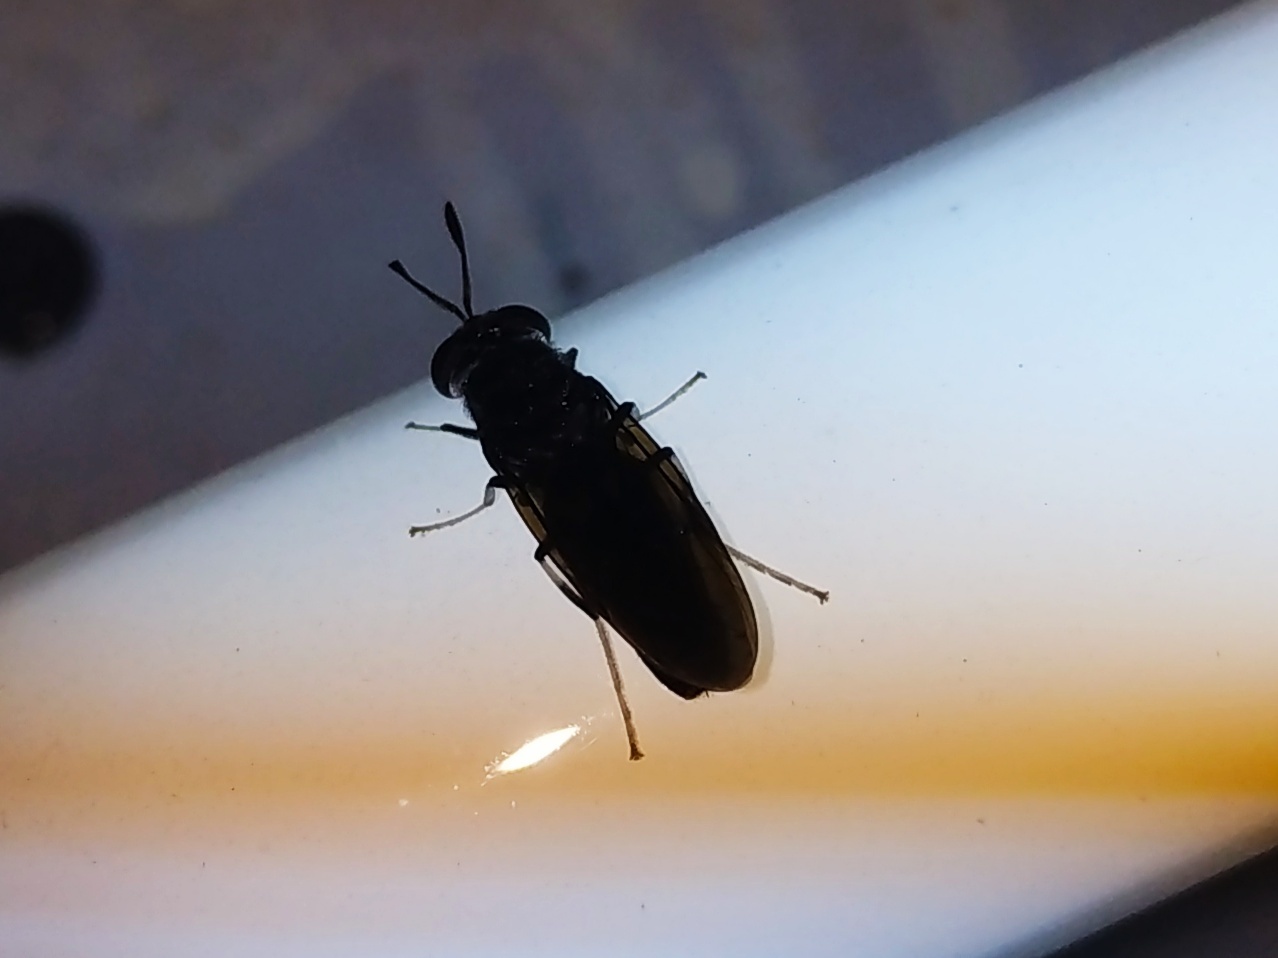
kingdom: Animalia
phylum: Arthropoda
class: Insecta
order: Diptera
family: Stratiomyidae
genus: Hermetia
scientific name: Hermetia illucens
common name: Black soldier fly
